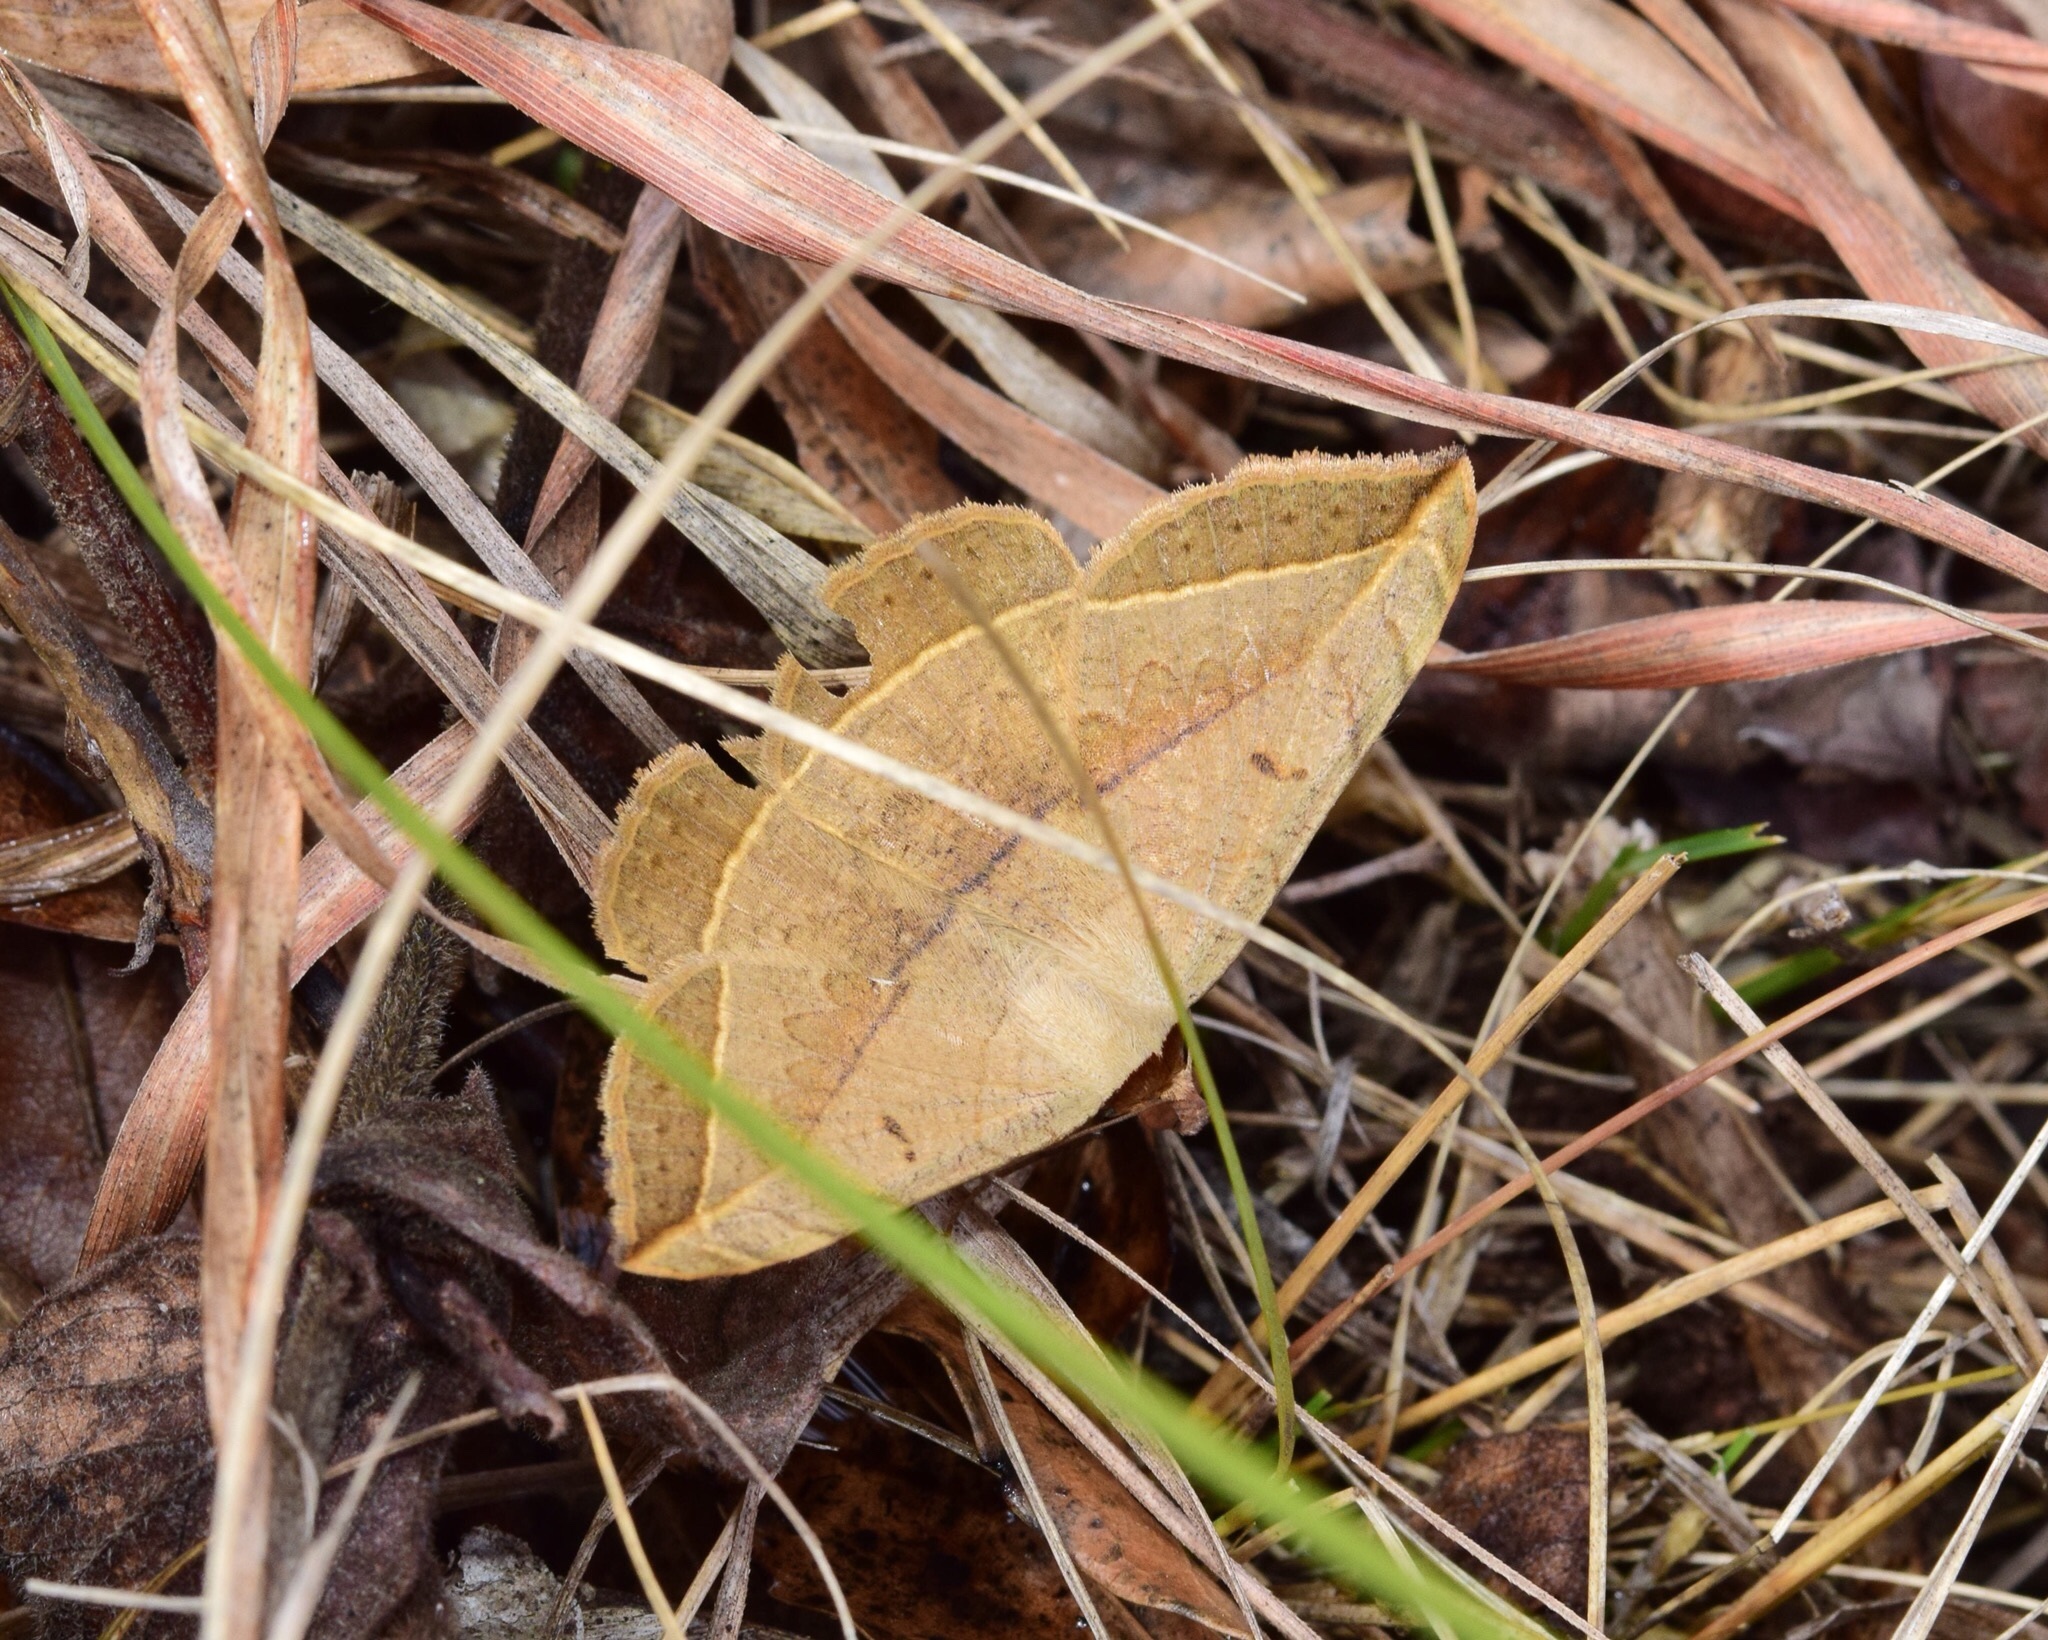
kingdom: Animalia
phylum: Arthropoda
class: Insecta
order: Lepidoptera
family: Erebidae
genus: Entomogramma
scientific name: Entomogramma pardus
